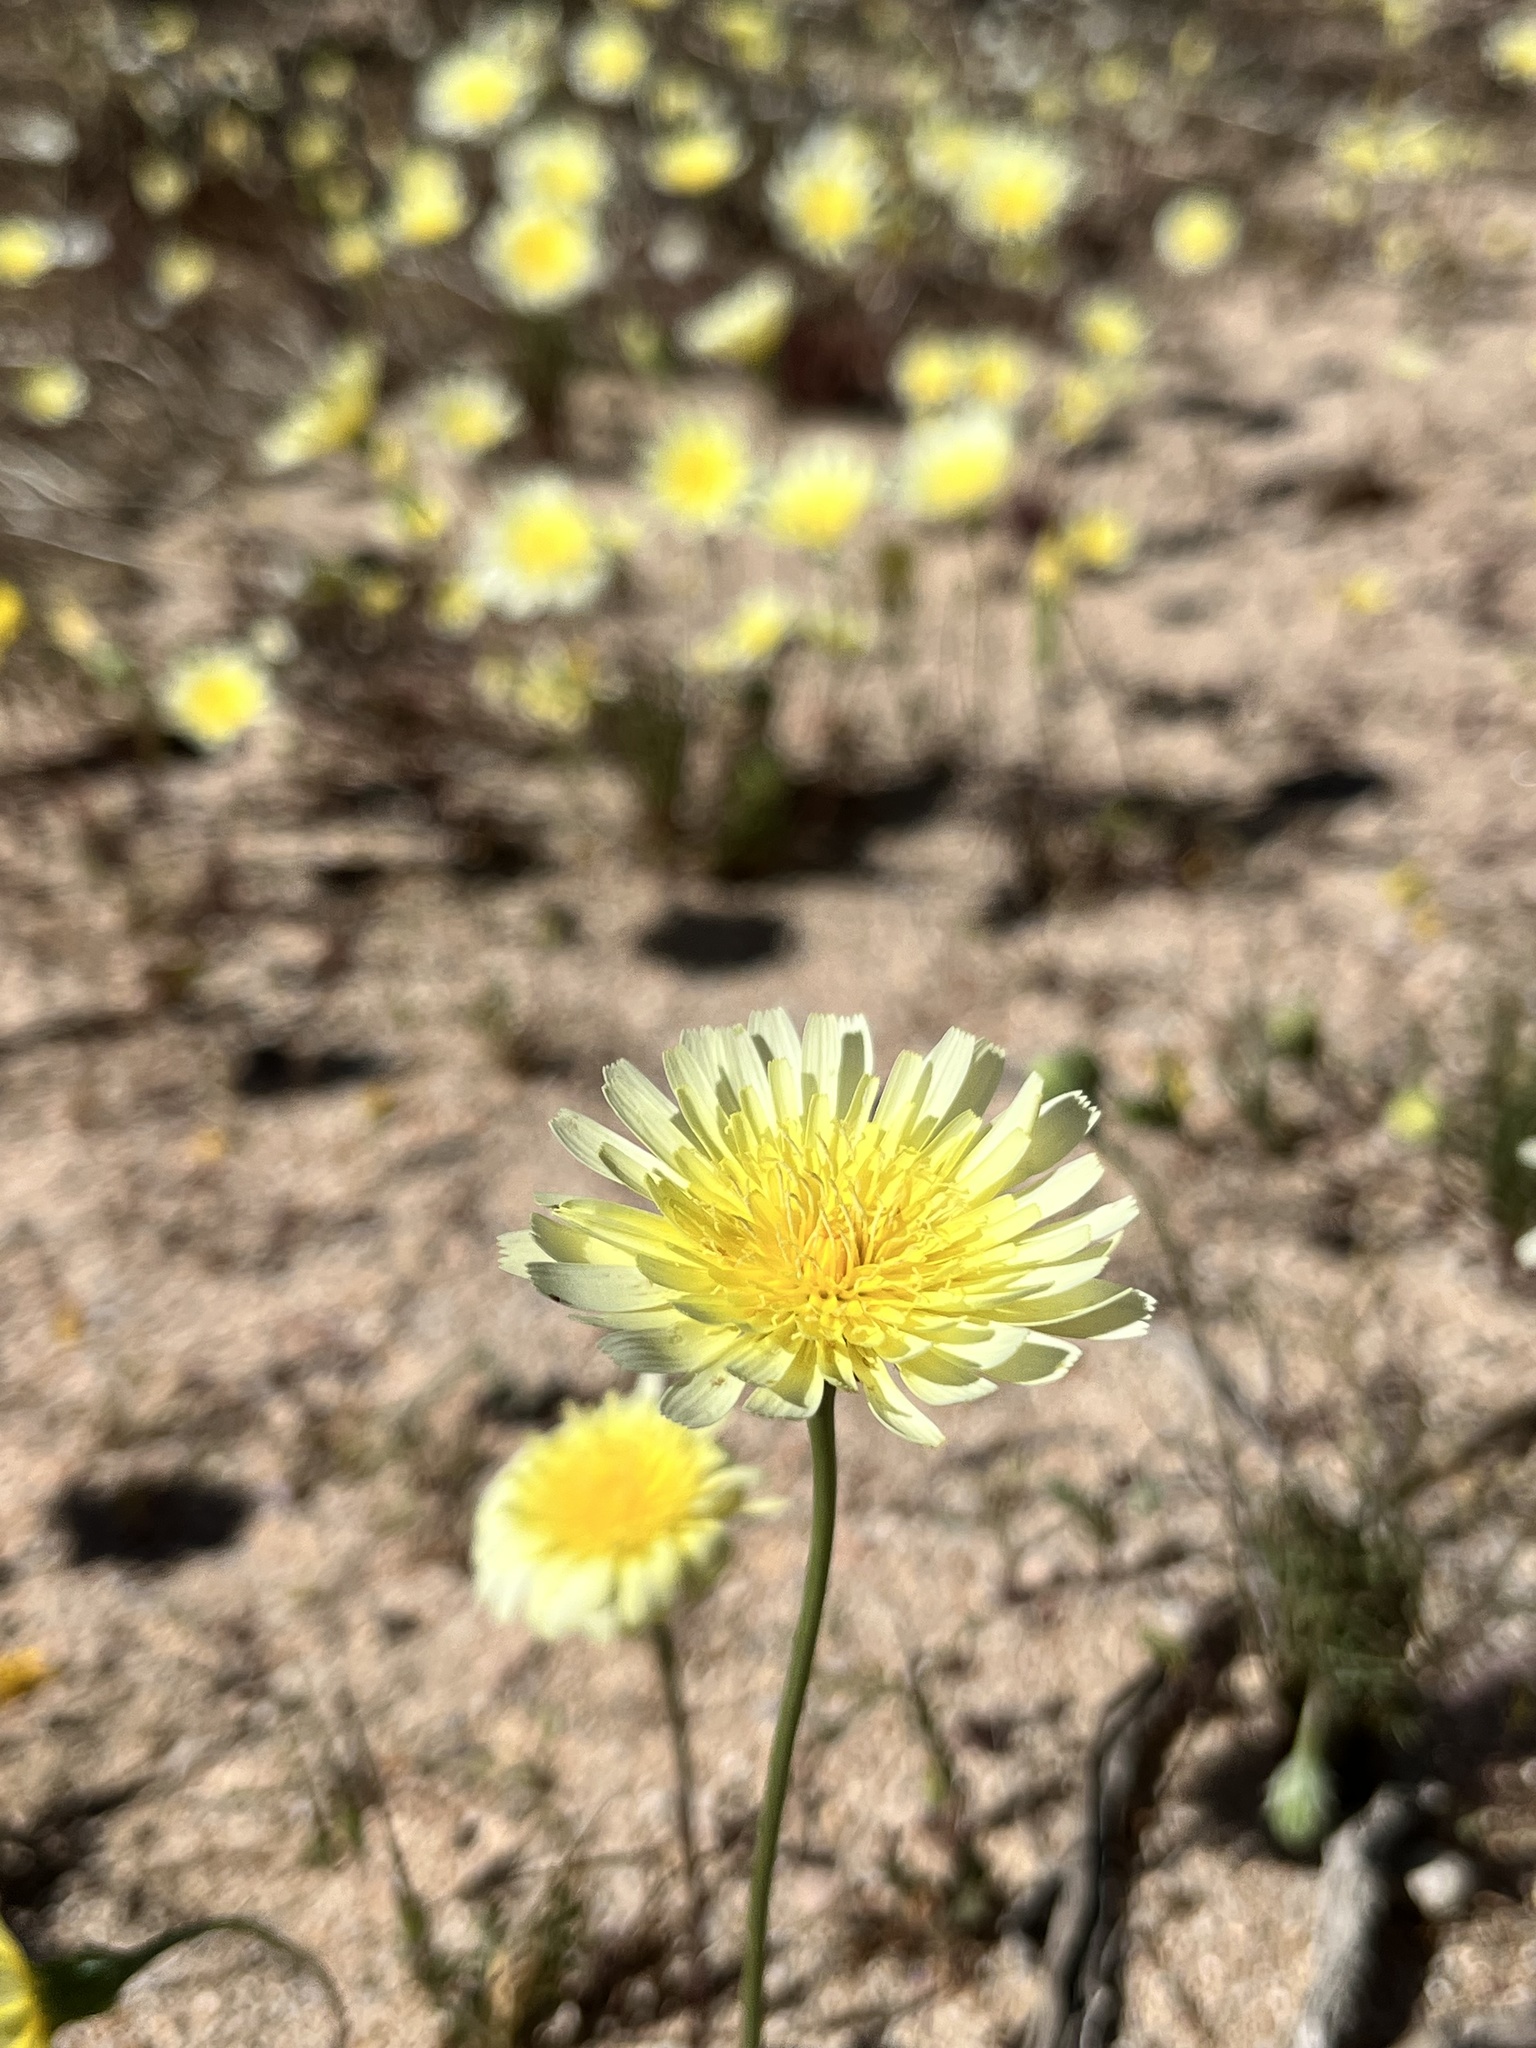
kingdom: Plantae
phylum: Tracheophyta
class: Magnoliopsida
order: Asterales
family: Asteraceae
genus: Malacothrix
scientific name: Malacothrix glabrata
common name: Smooth desert-dandelion
